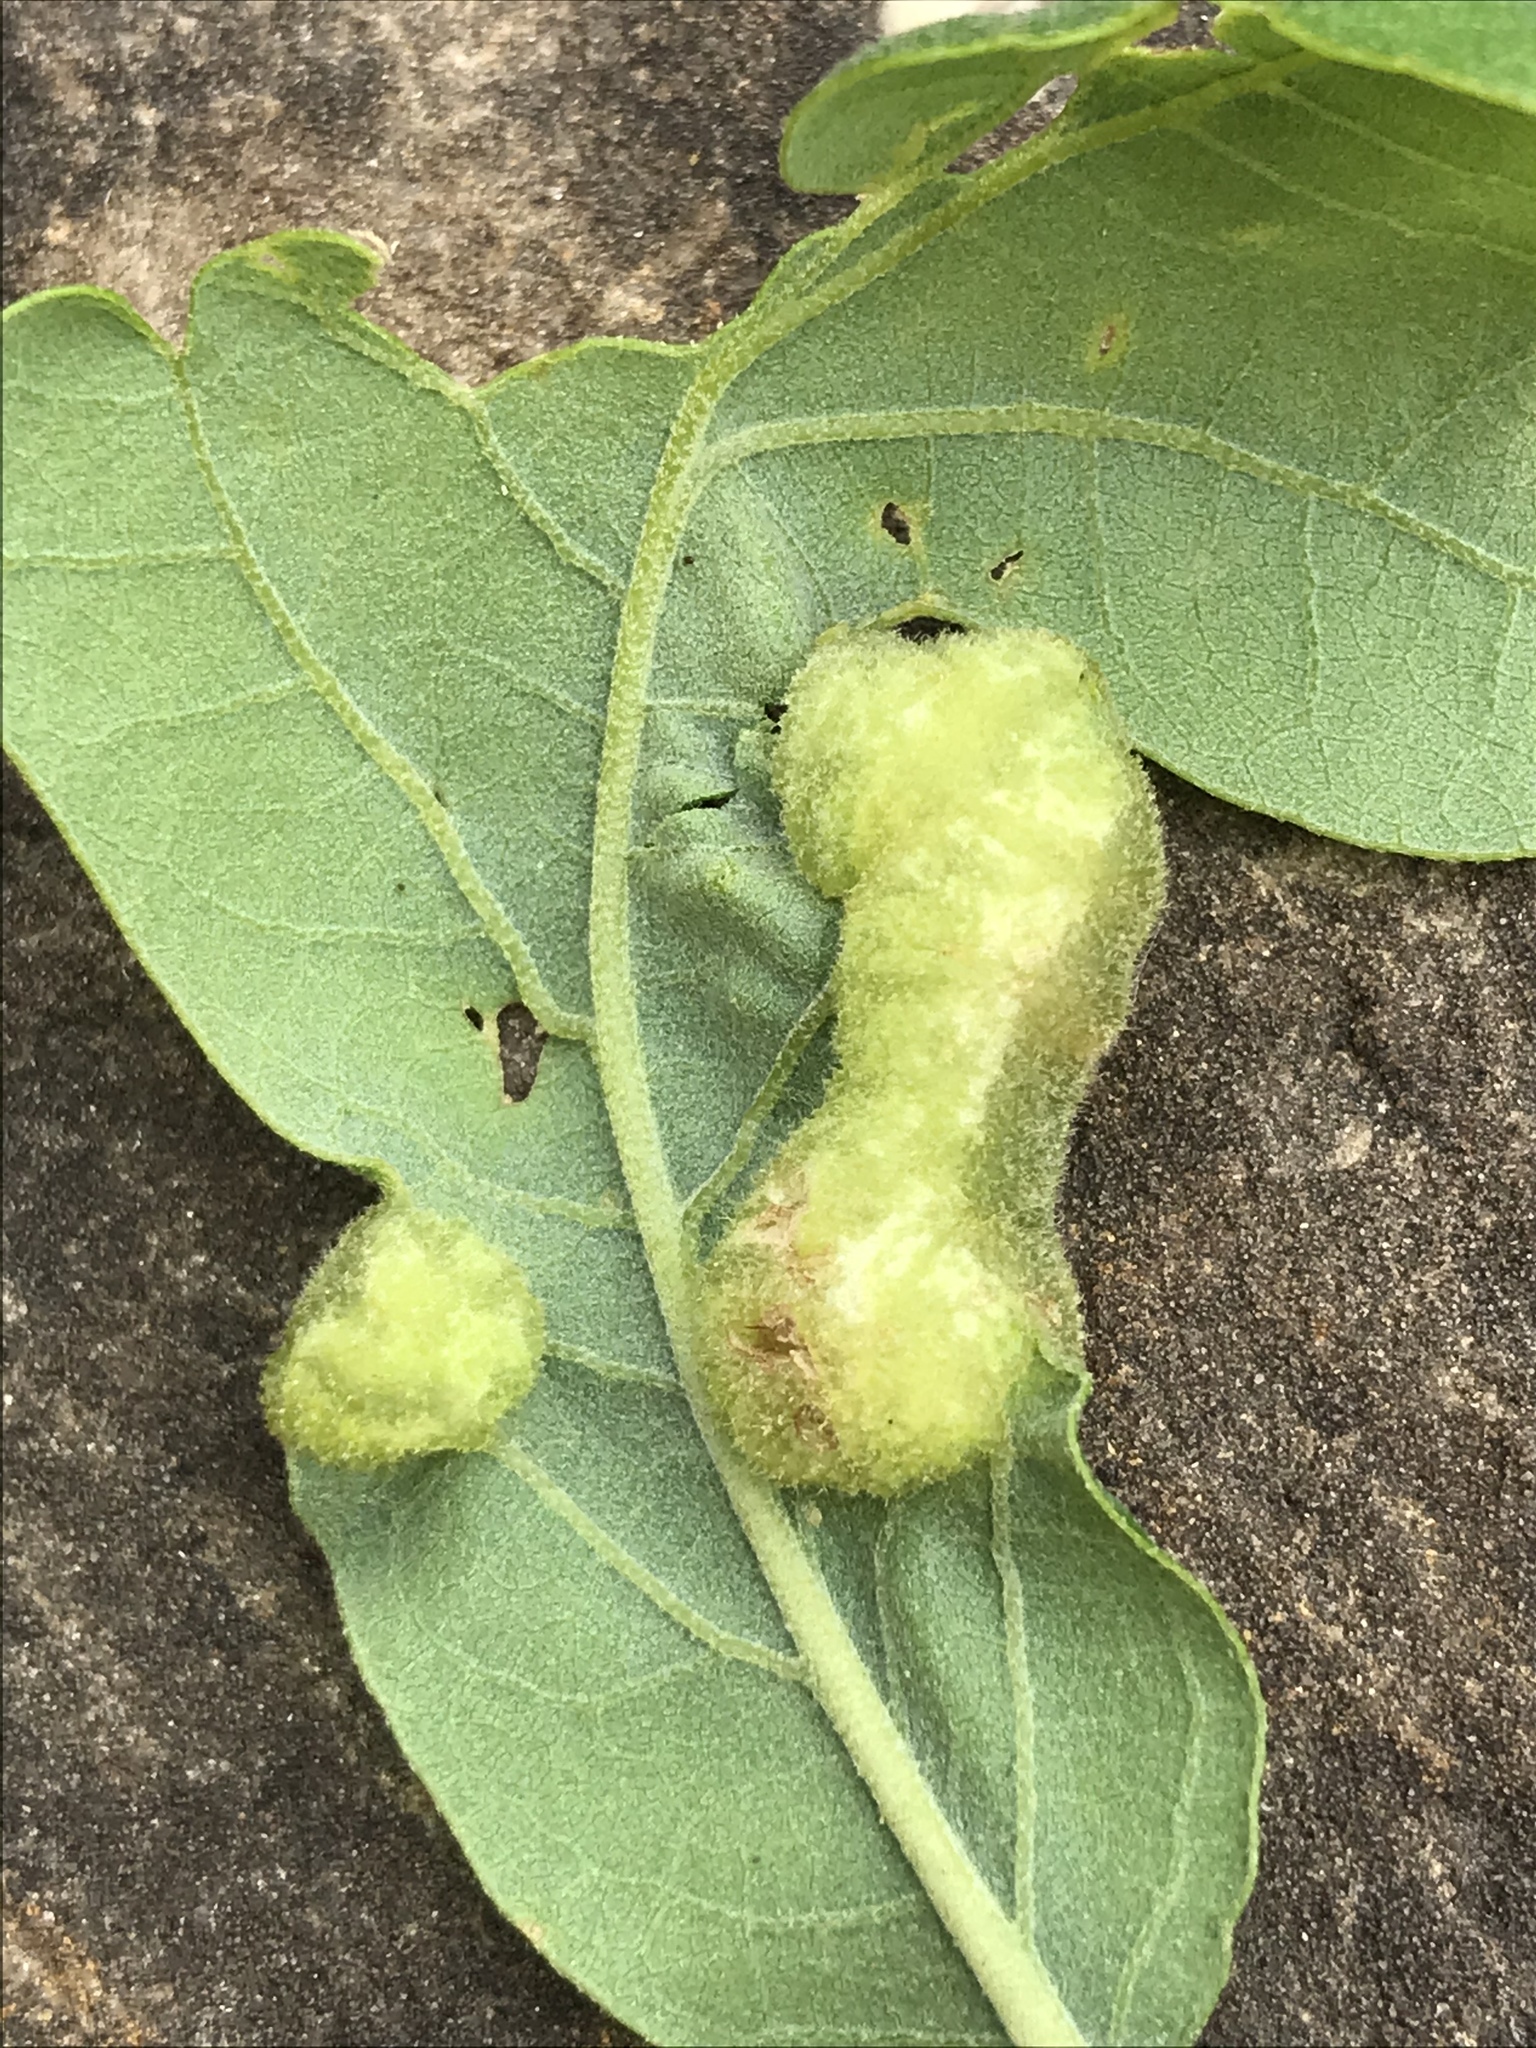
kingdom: Animalia
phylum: Arthropoda
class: Insecta
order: Hymenoptera
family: Cynipidae
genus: Neuroterus
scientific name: Neuroterus quercusirregularis
